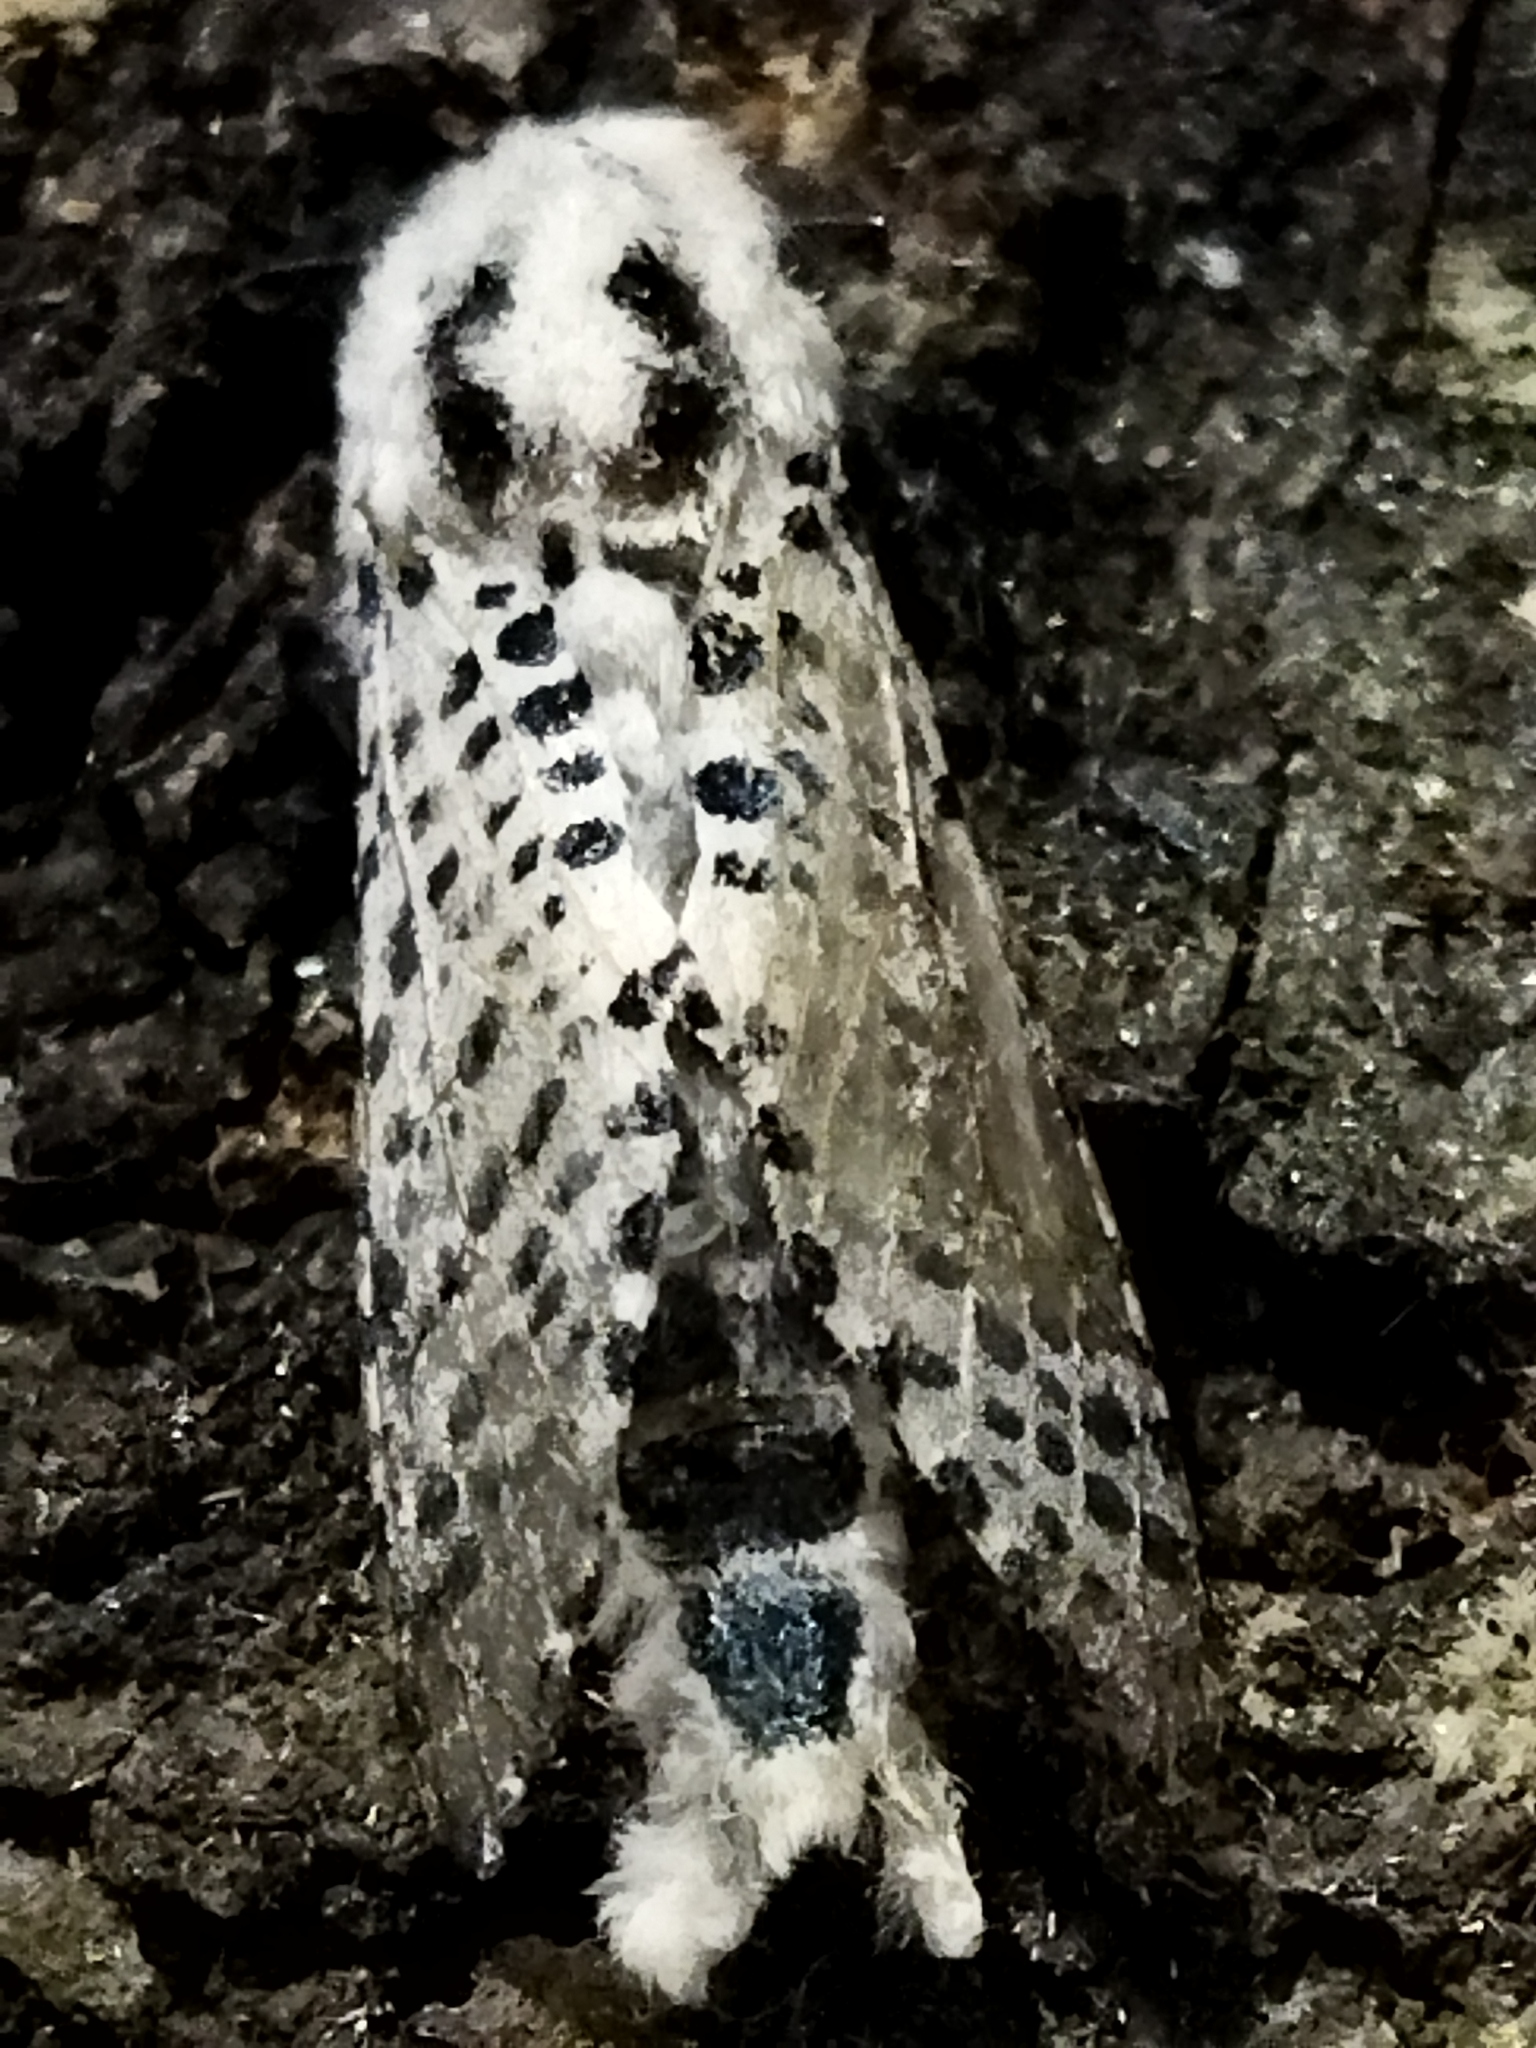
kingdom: Animalia
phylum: Arthropoda
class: Insecta
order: Lepidoptera
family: Cossidae
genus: Zeuzera
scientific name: Zeuzera pyrina
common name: Leopard moth
